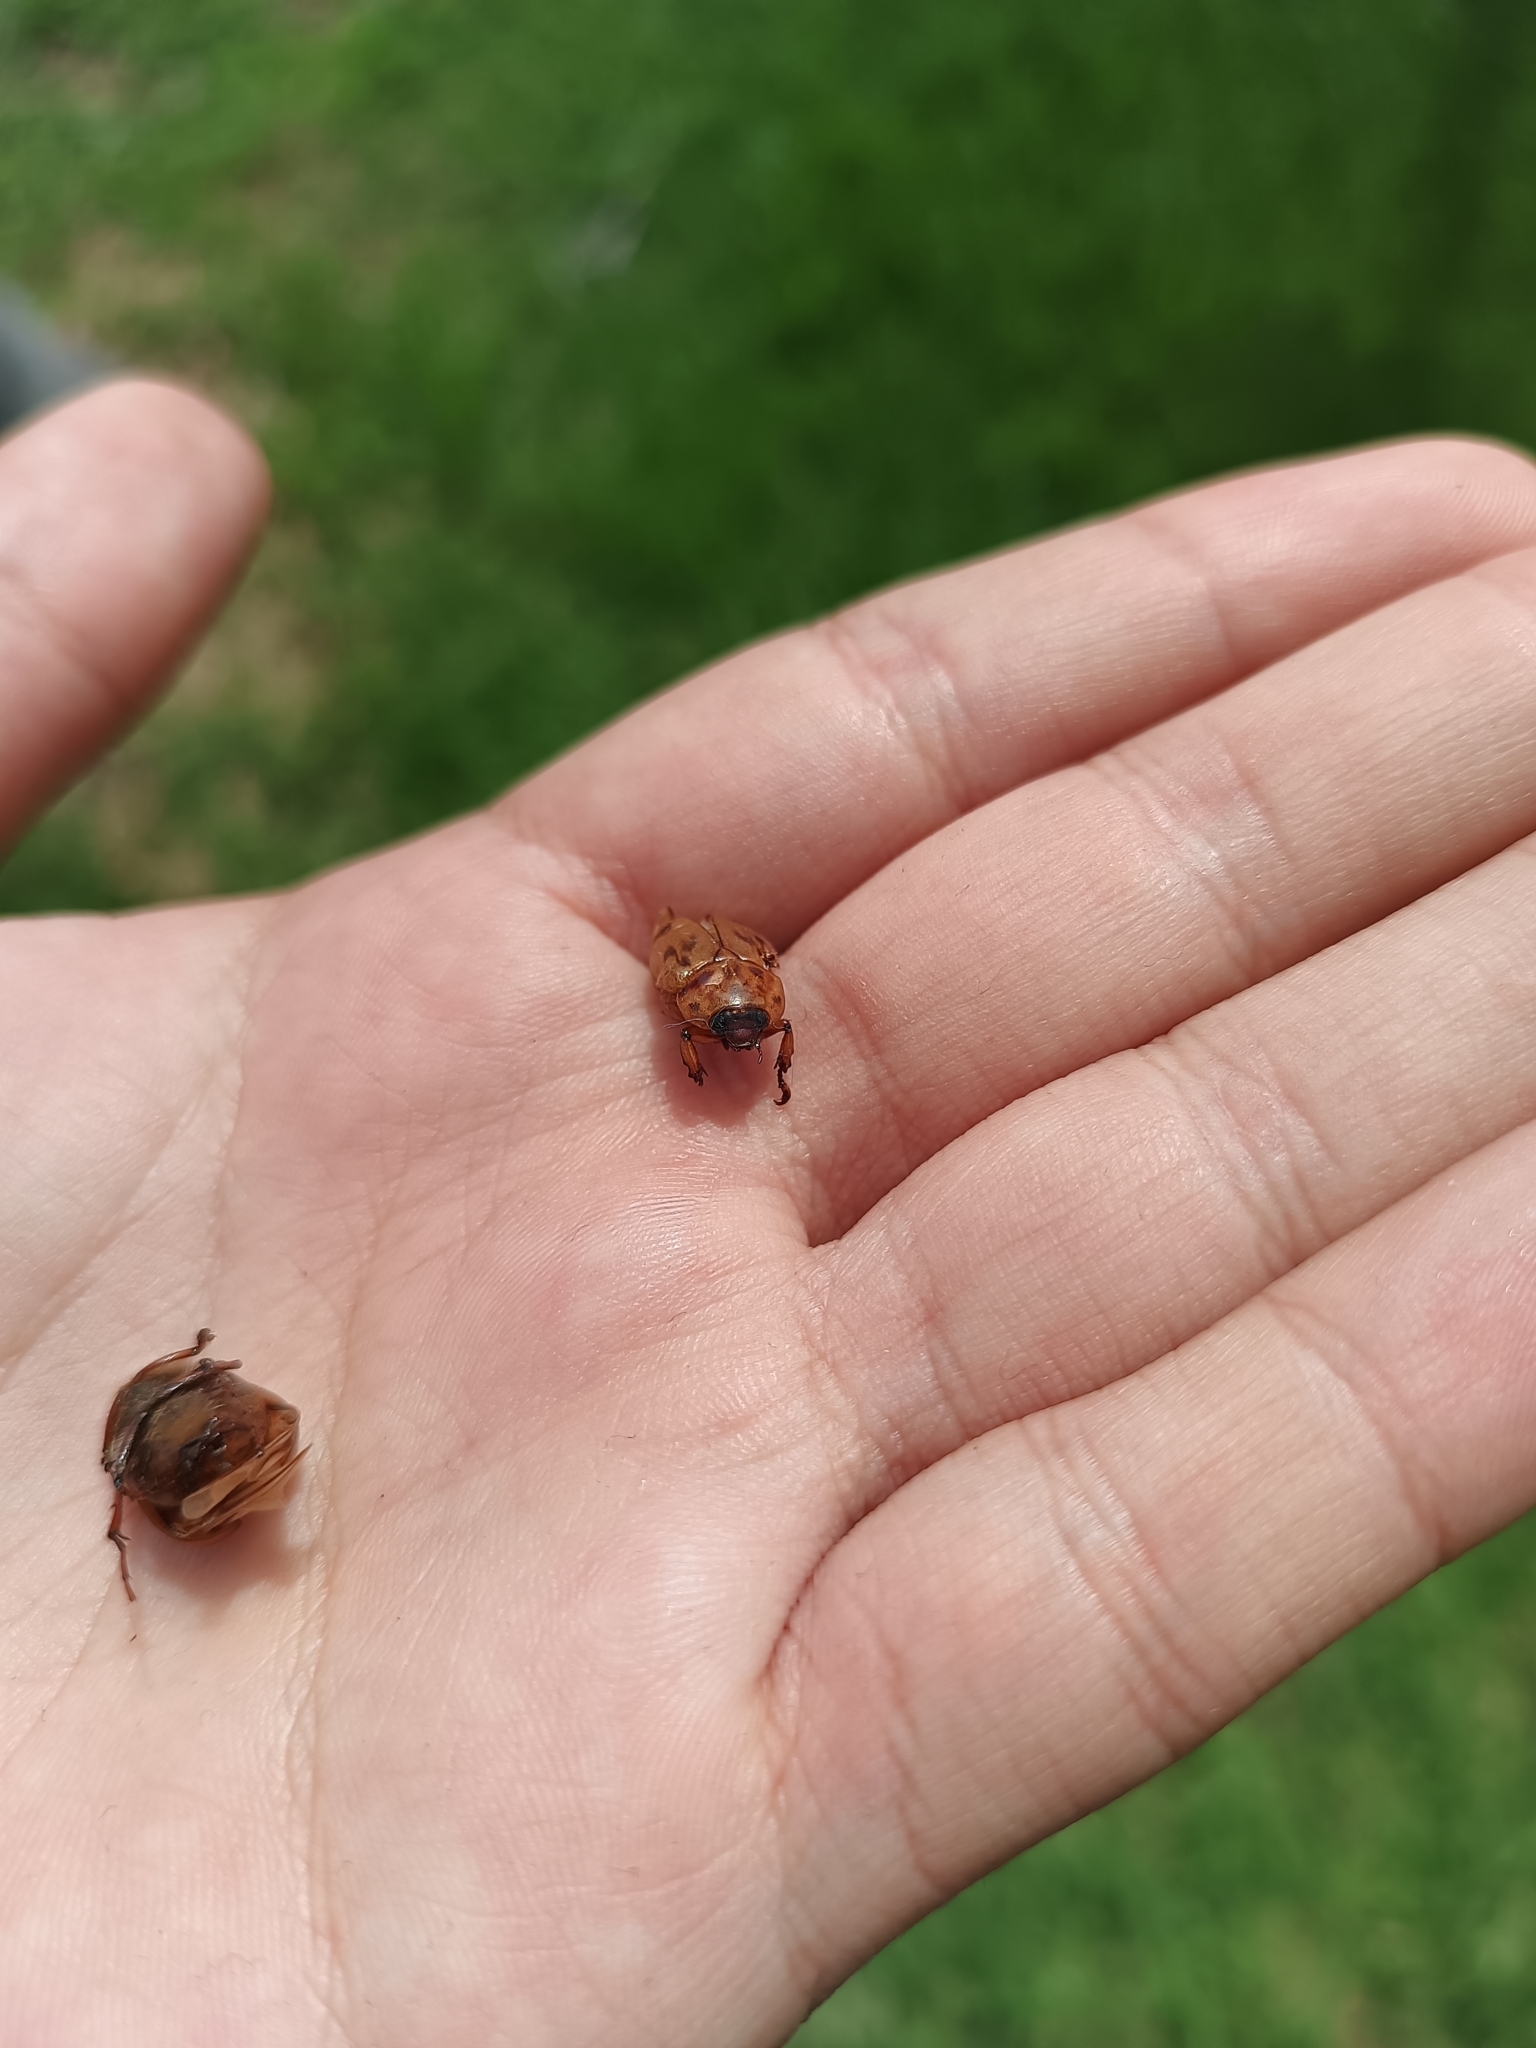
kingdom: Animalia
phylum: Arthropoda
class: Insecta
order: Coleoptera
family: Scarabaeidae
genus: Cyclocephala
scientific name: Cyclocephala lunulata
